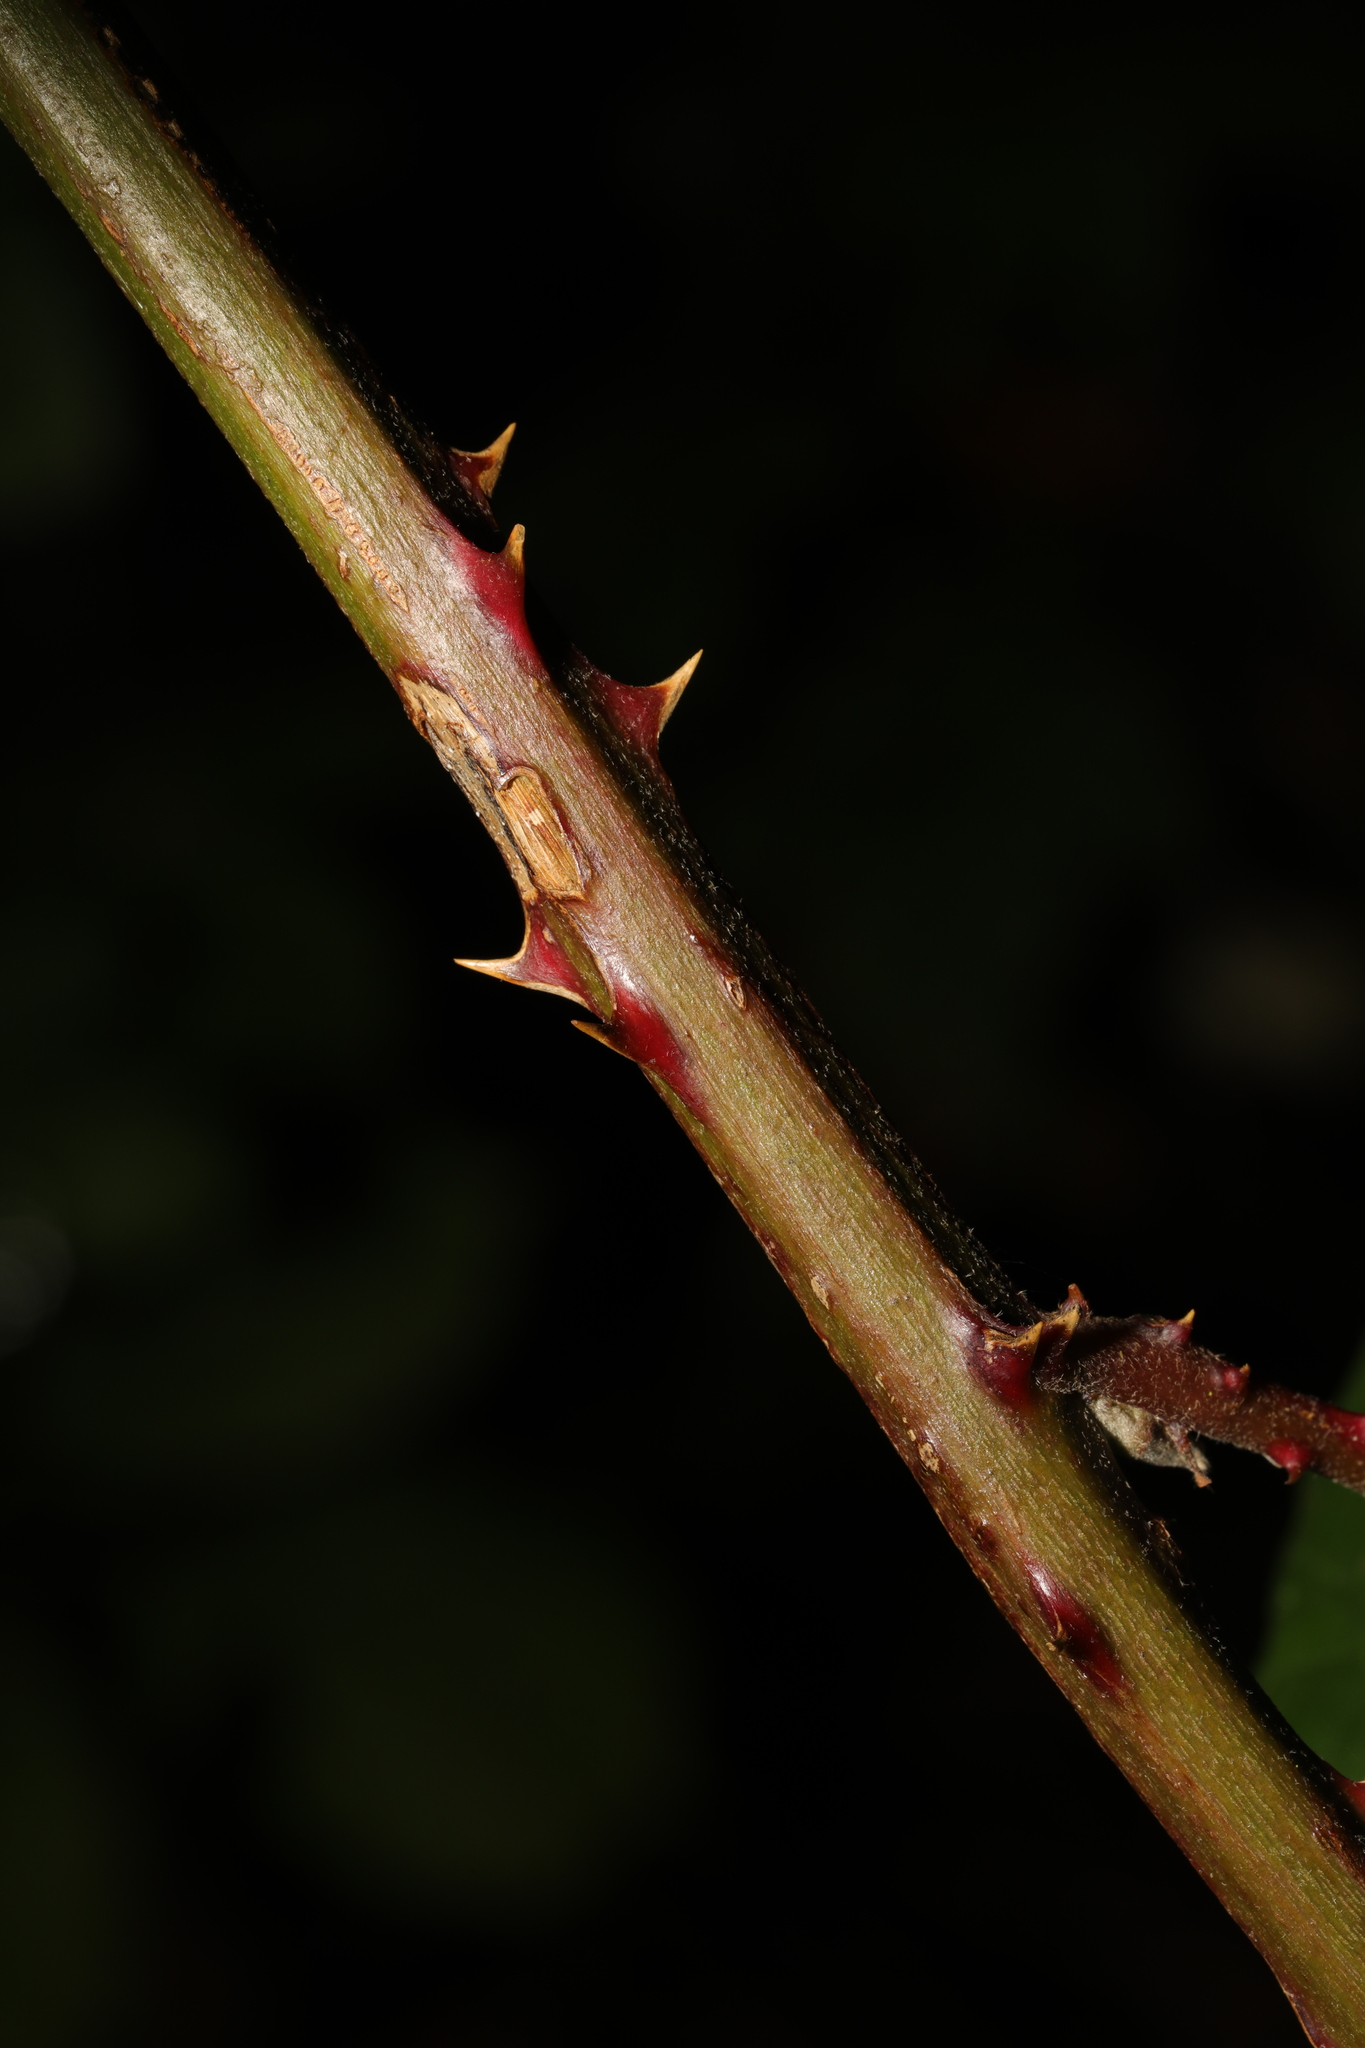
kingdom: Plantae
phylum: Tracheophyta
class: Magnoliopsida
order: Rosales
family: Rosaceae
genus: Rubus
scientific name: Rubus armeniacus
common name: Himalayan blackberry
